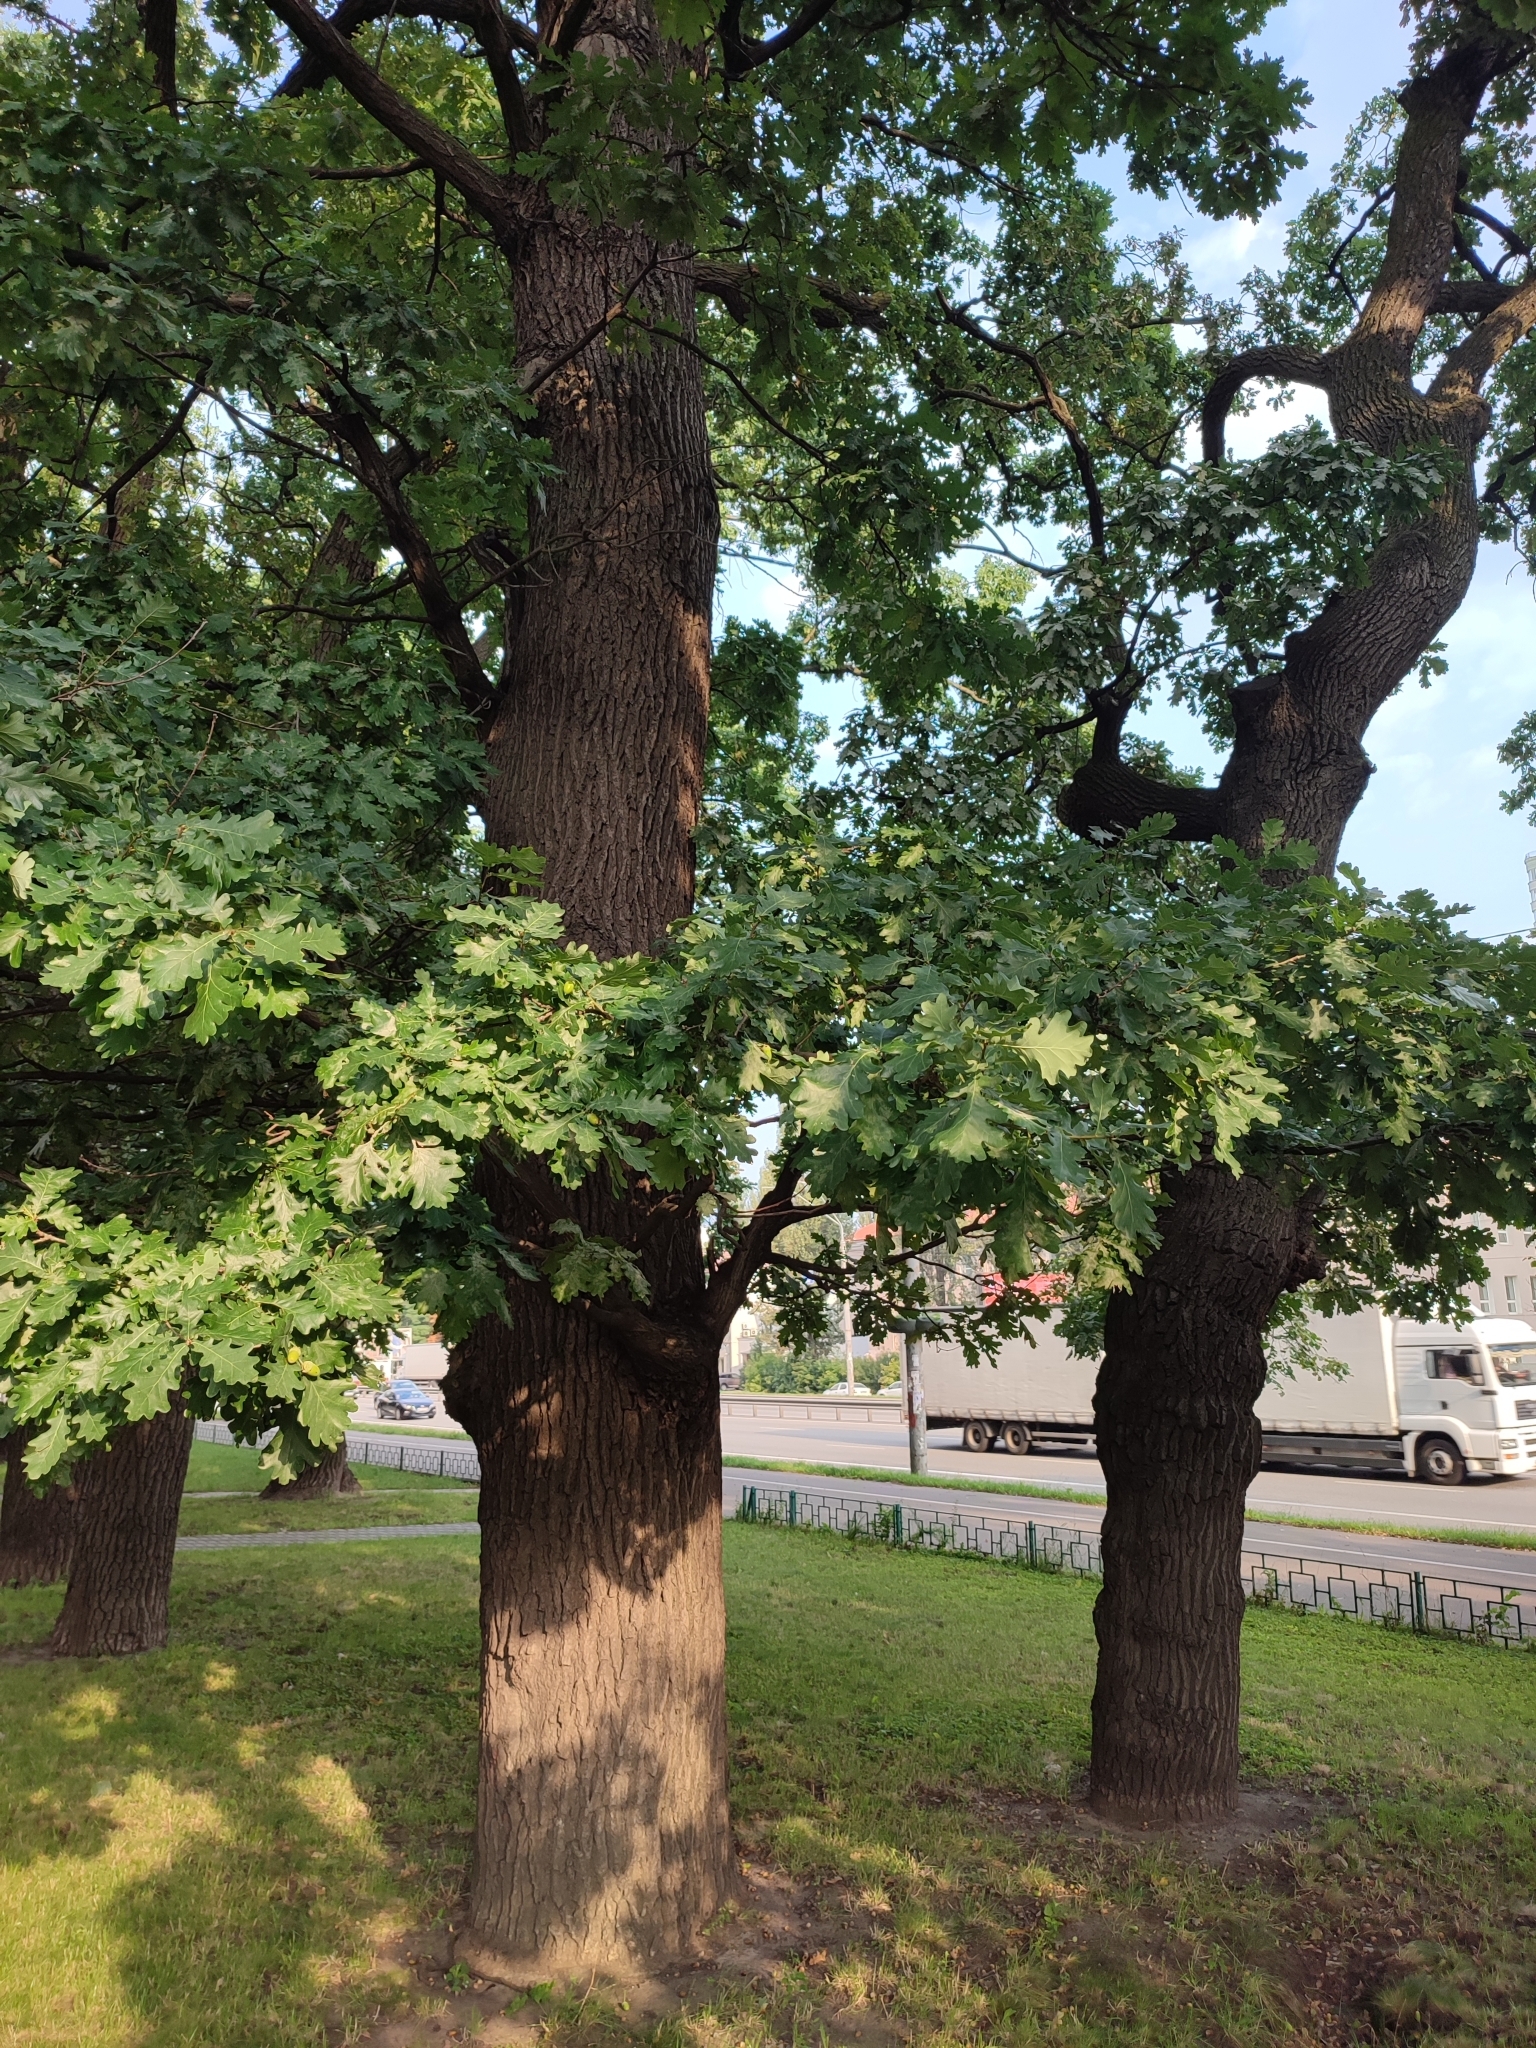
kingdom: Plantae
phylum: Tracheophyta
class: Magnoliopsida
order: Fagales
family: Fagaceae
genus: Quercus
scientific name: Quercus robur
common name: Pedunculate oak
